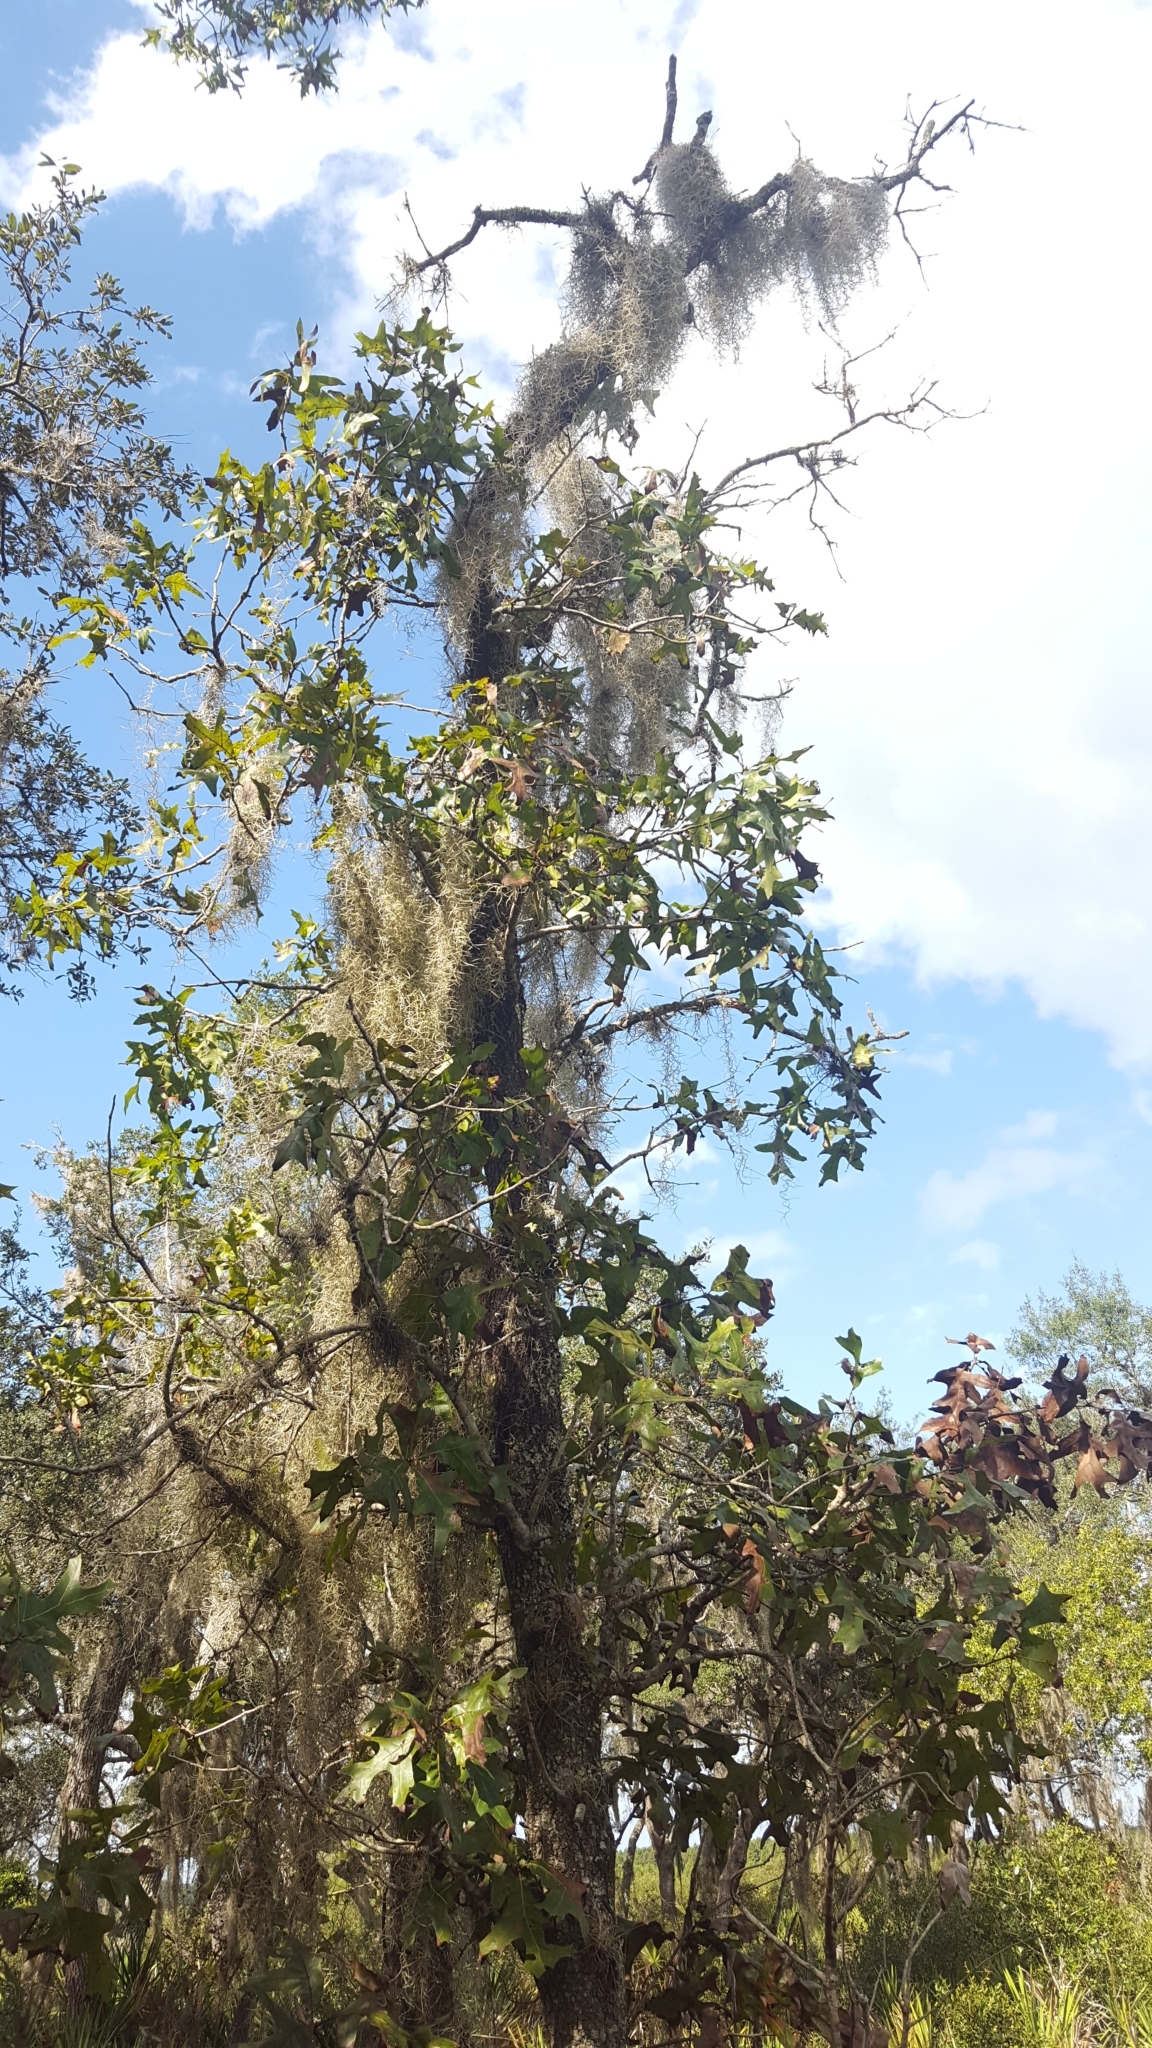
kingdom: Plantae
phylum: Tracheophyta
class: Magnoliopsida
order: Fagales
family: Fagaceae
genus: Quercus
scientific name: Quercus laevis
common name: Turkey oak
